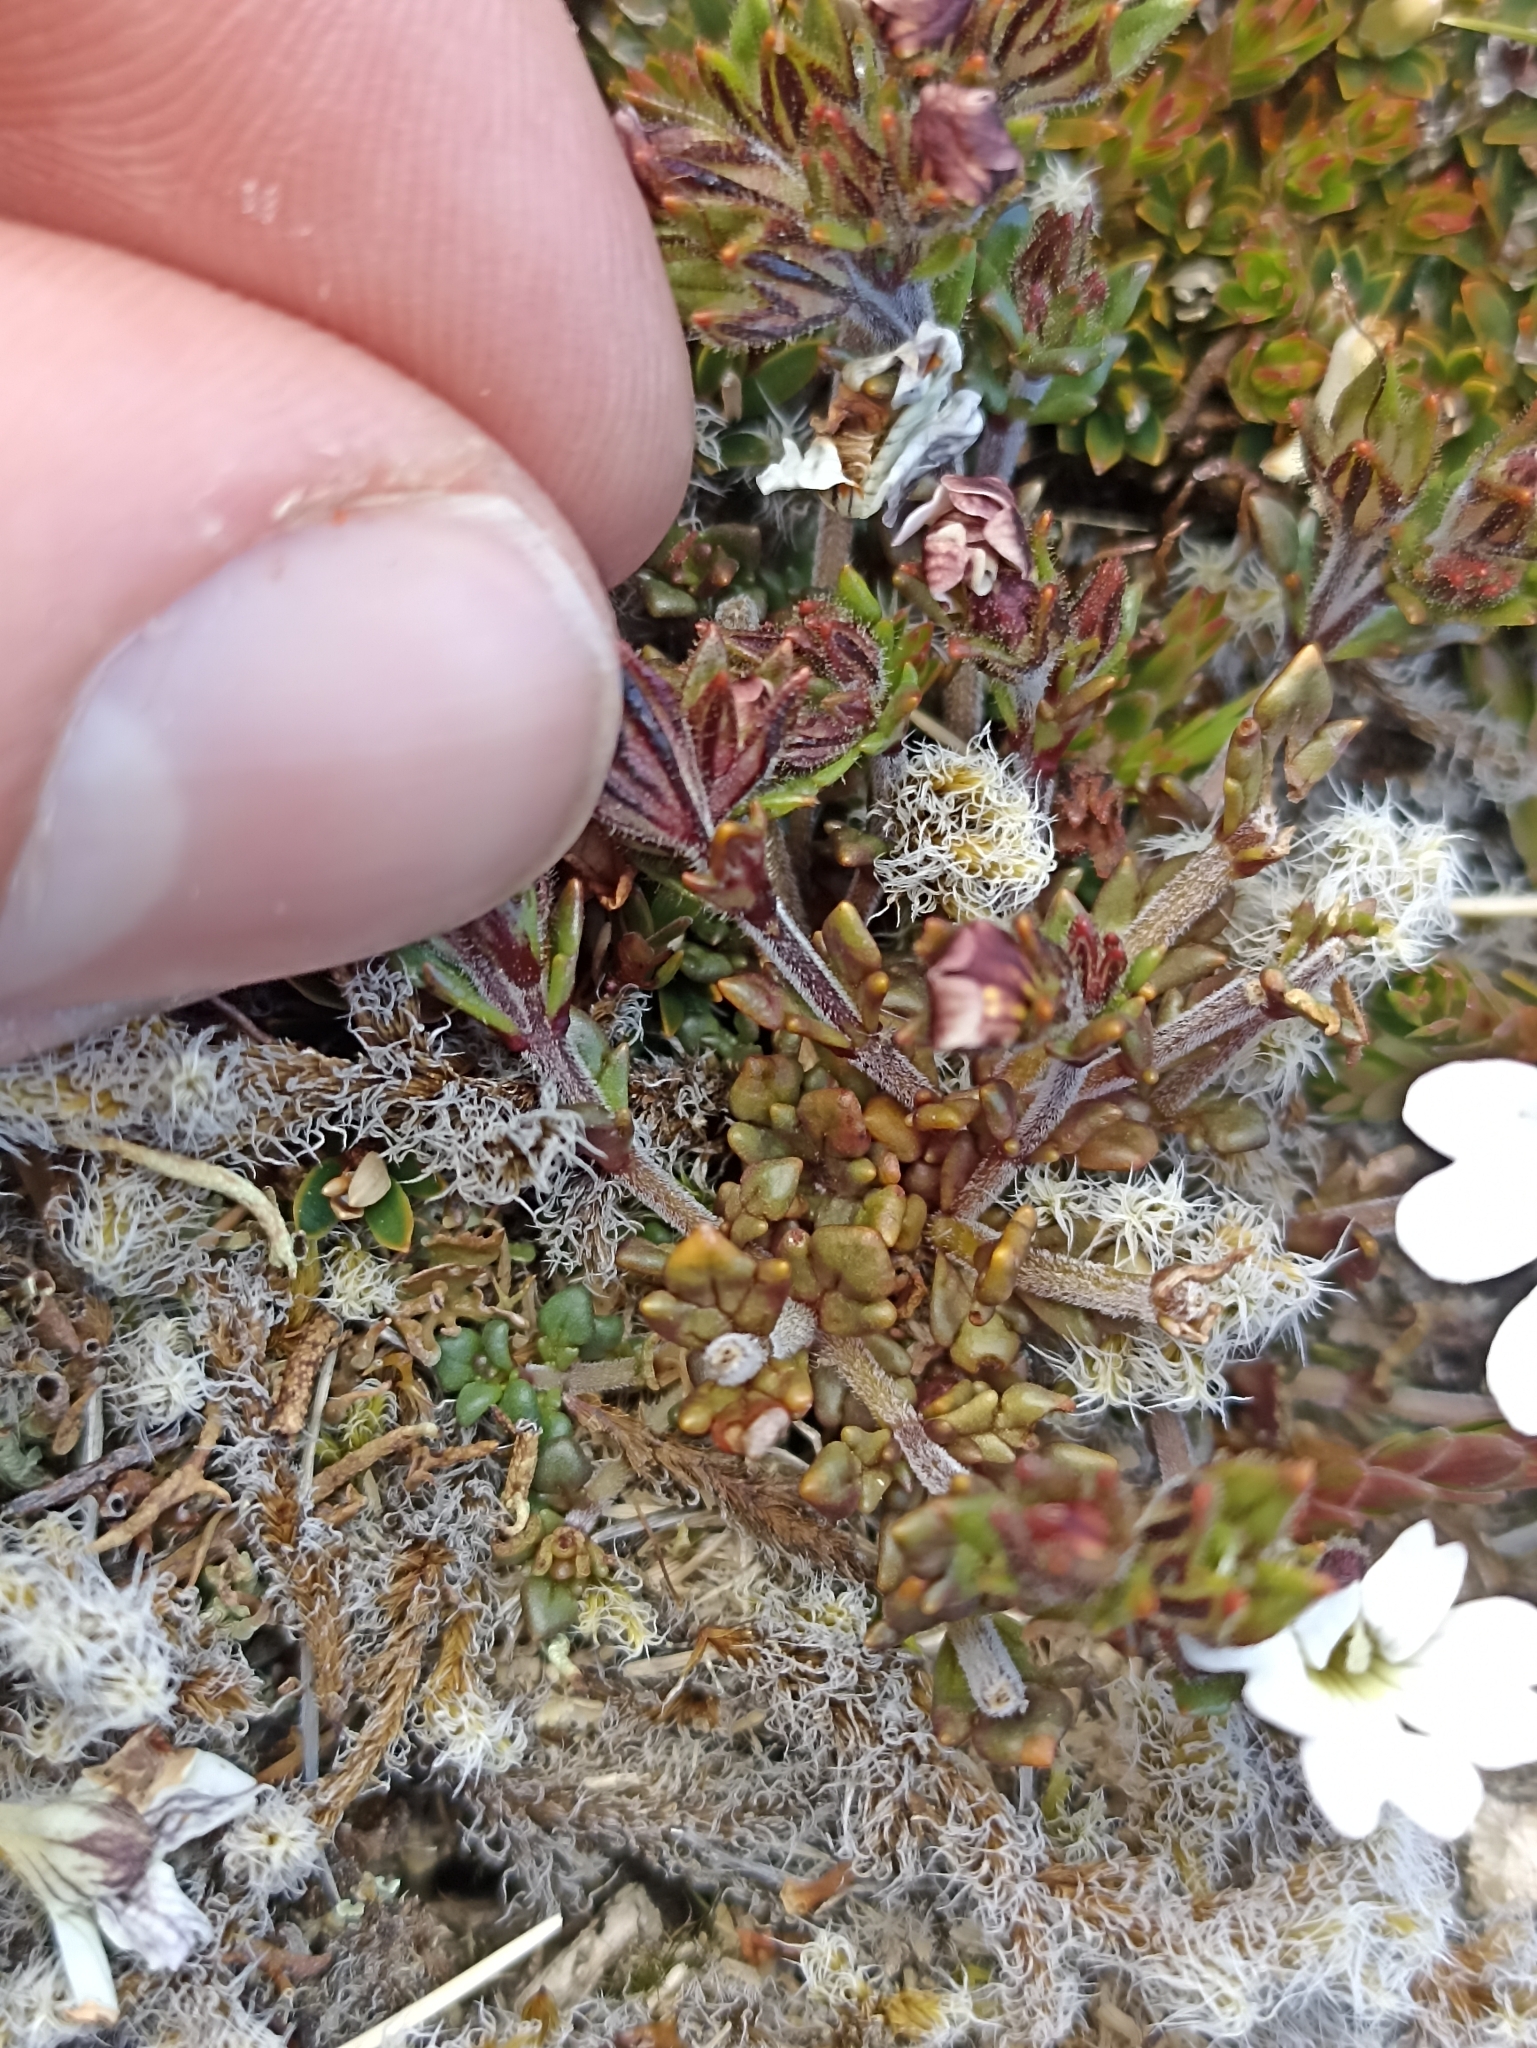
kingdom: Plantae
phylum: Tracheophyta
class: Magnoliopsida
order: Lamiales
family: Orobanchaceae
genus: Euphrasia
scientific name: Euphrasia townsonii
